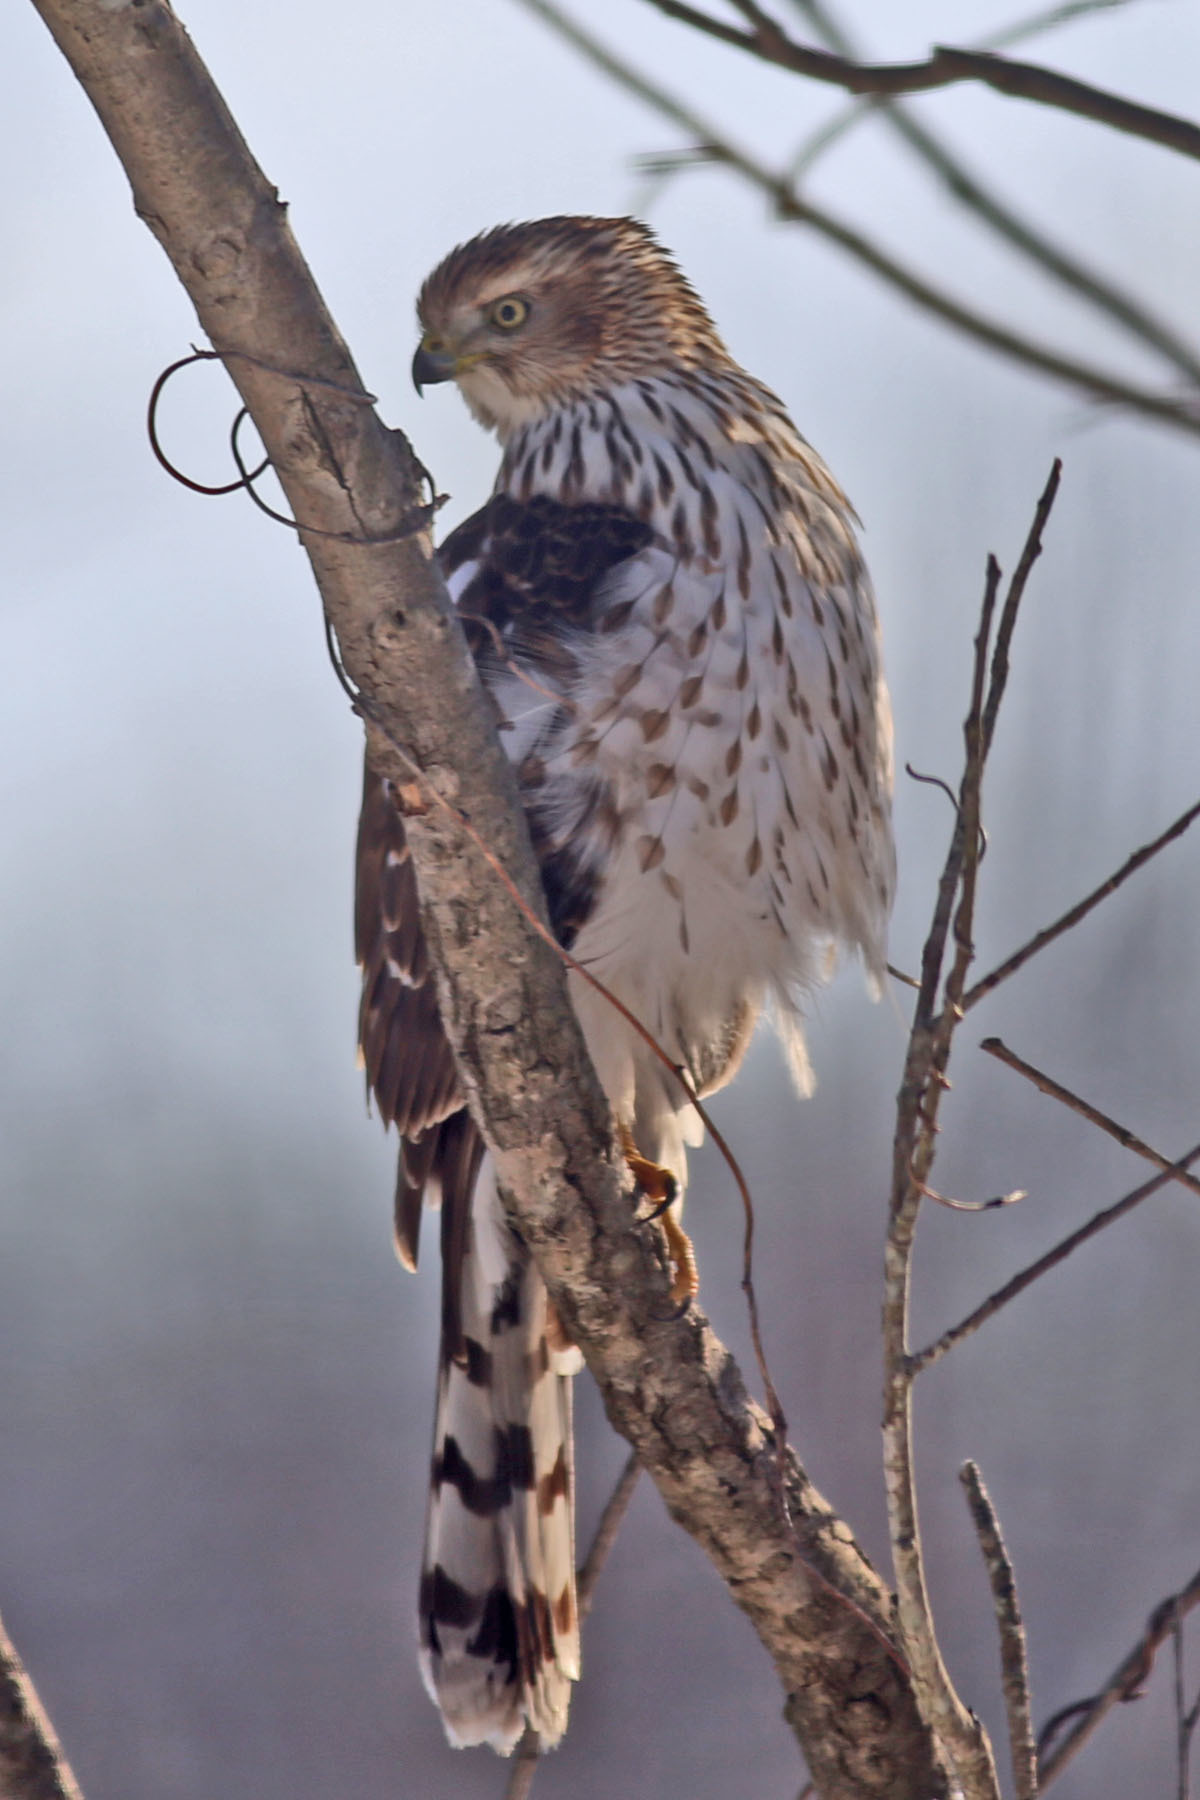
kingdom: Animalia
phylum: Chordata
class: Aves
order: Accipitriformes
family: Accipitridae
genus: Accipiter
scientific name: Accipiter cooperii
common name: Cooper's hawk
